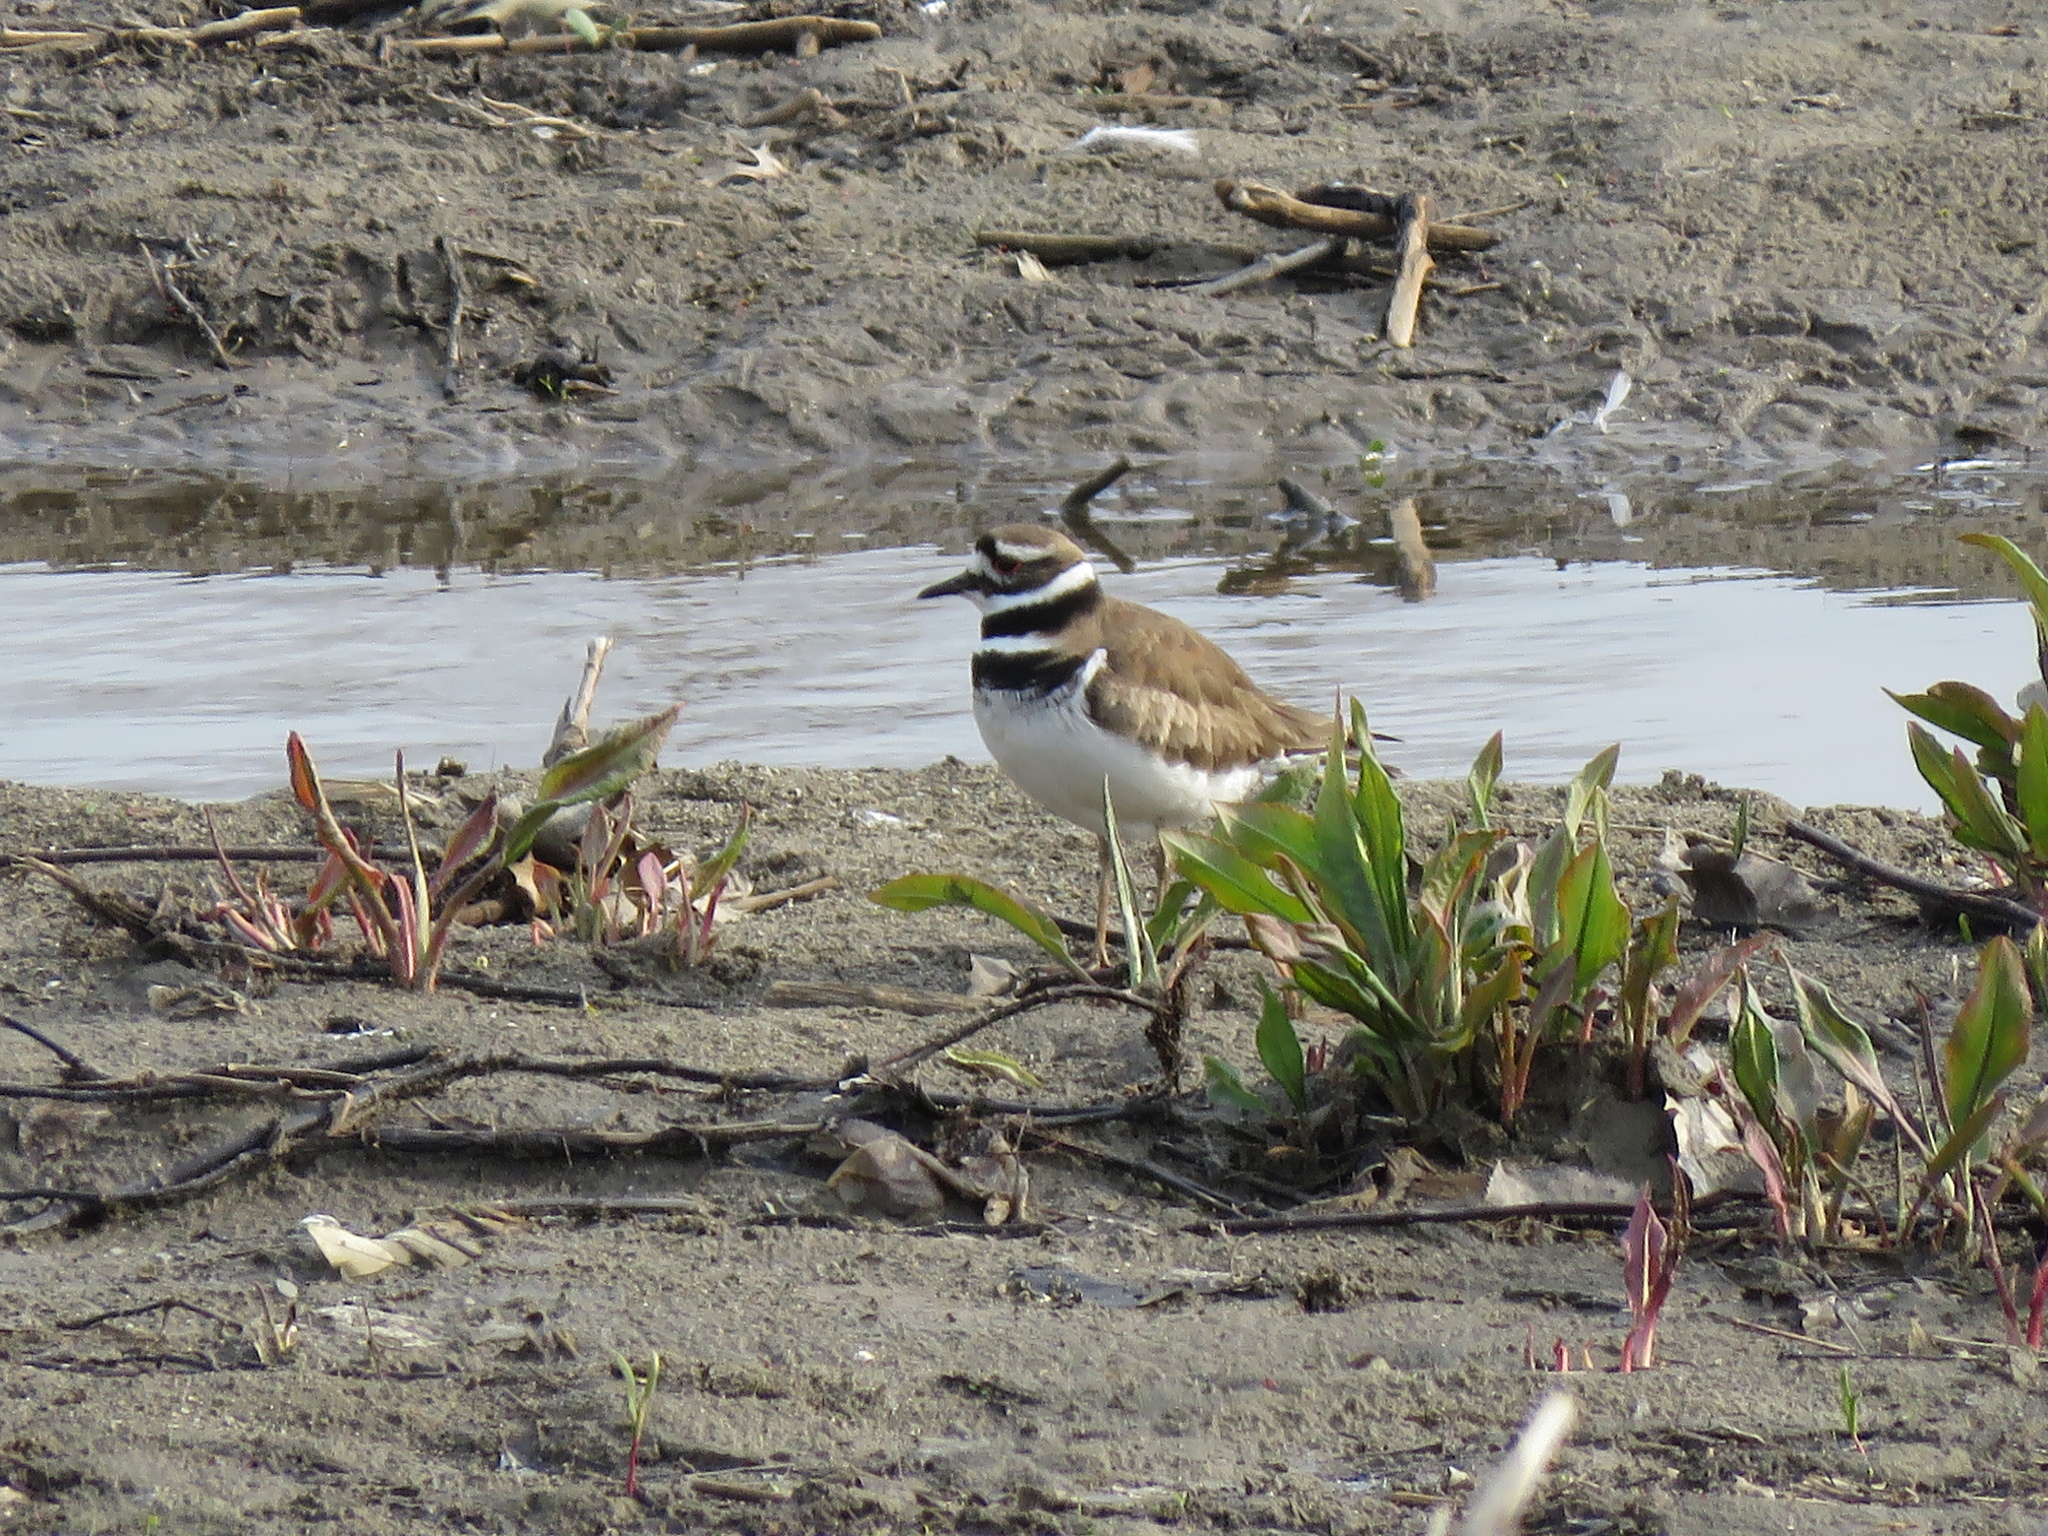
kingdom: Animalia
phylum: Chordata
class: Aves
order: Charadriiformes
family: Charadriidae
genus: Charadrius
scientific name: Charadrius vociferus
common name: Killdeer
